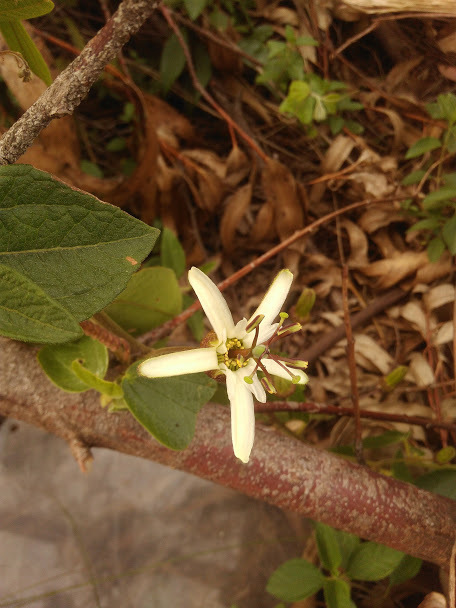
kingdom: Plantae
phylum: Tracheophyta
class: Magnoliopsida
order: Malpighiales
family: Passifloraceae
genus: Passiflora
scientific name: Passiflora bogotensis
